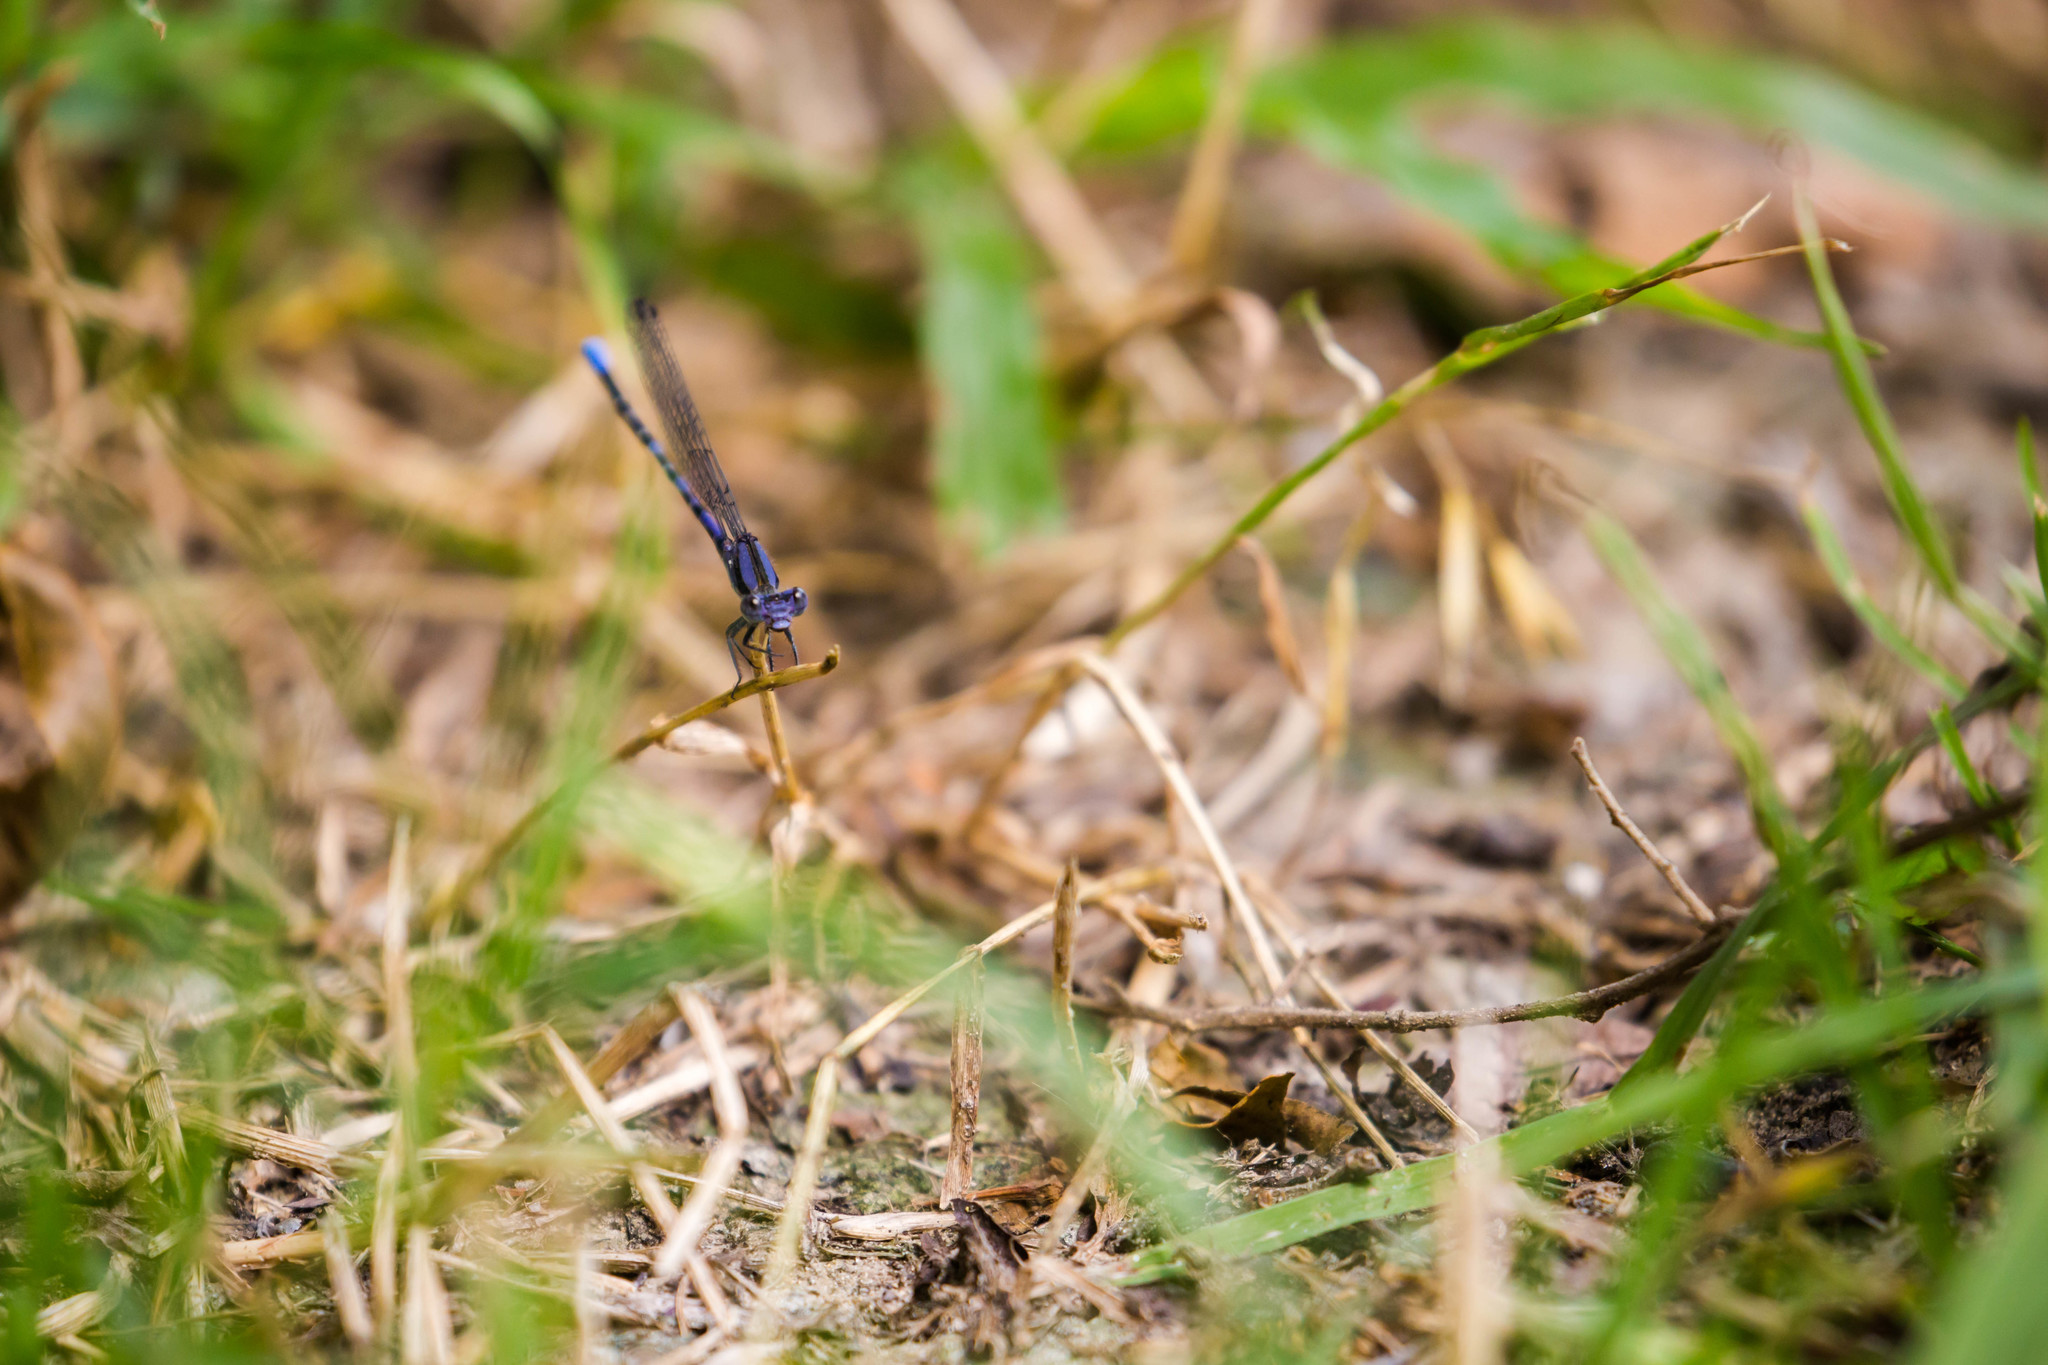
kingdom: Animalia
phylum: Arthropoda
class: Insecta
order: Odonata
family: Coenagrionidae
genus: Argia
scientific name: Argia immunda
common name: Kiowa dancer
